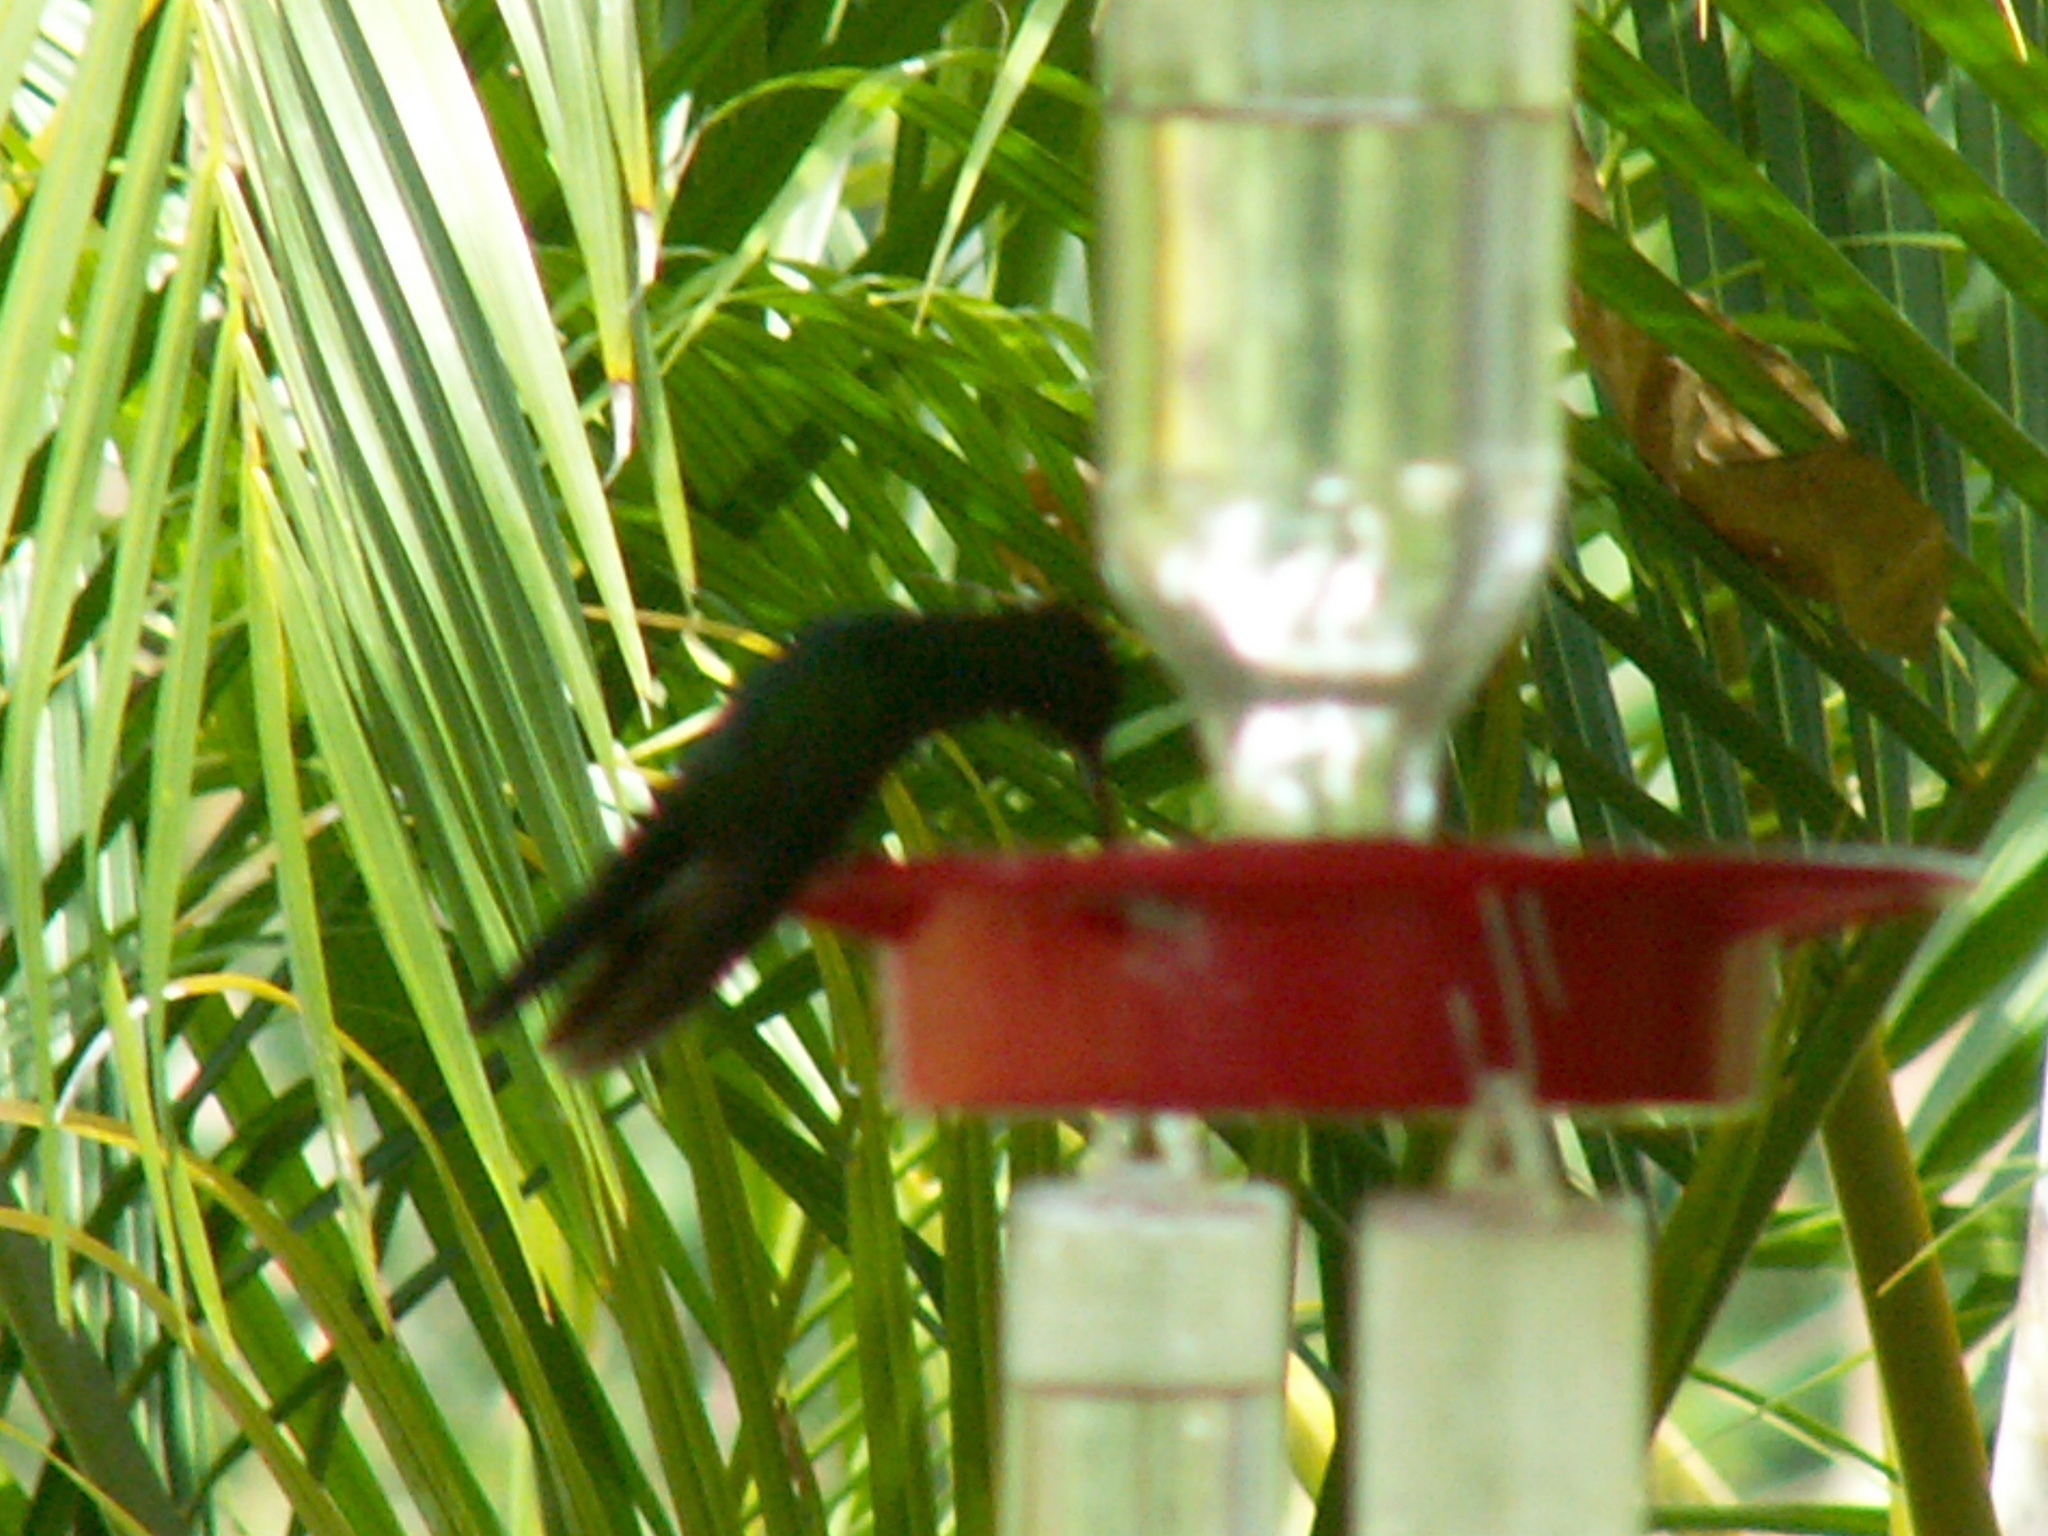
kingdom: Animalia
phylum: Chordata
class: Aves
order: Apodiformes
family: Trochilidae
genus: Chalybura
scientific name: Chalybura buffonii
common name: White-vented plumeleteer
